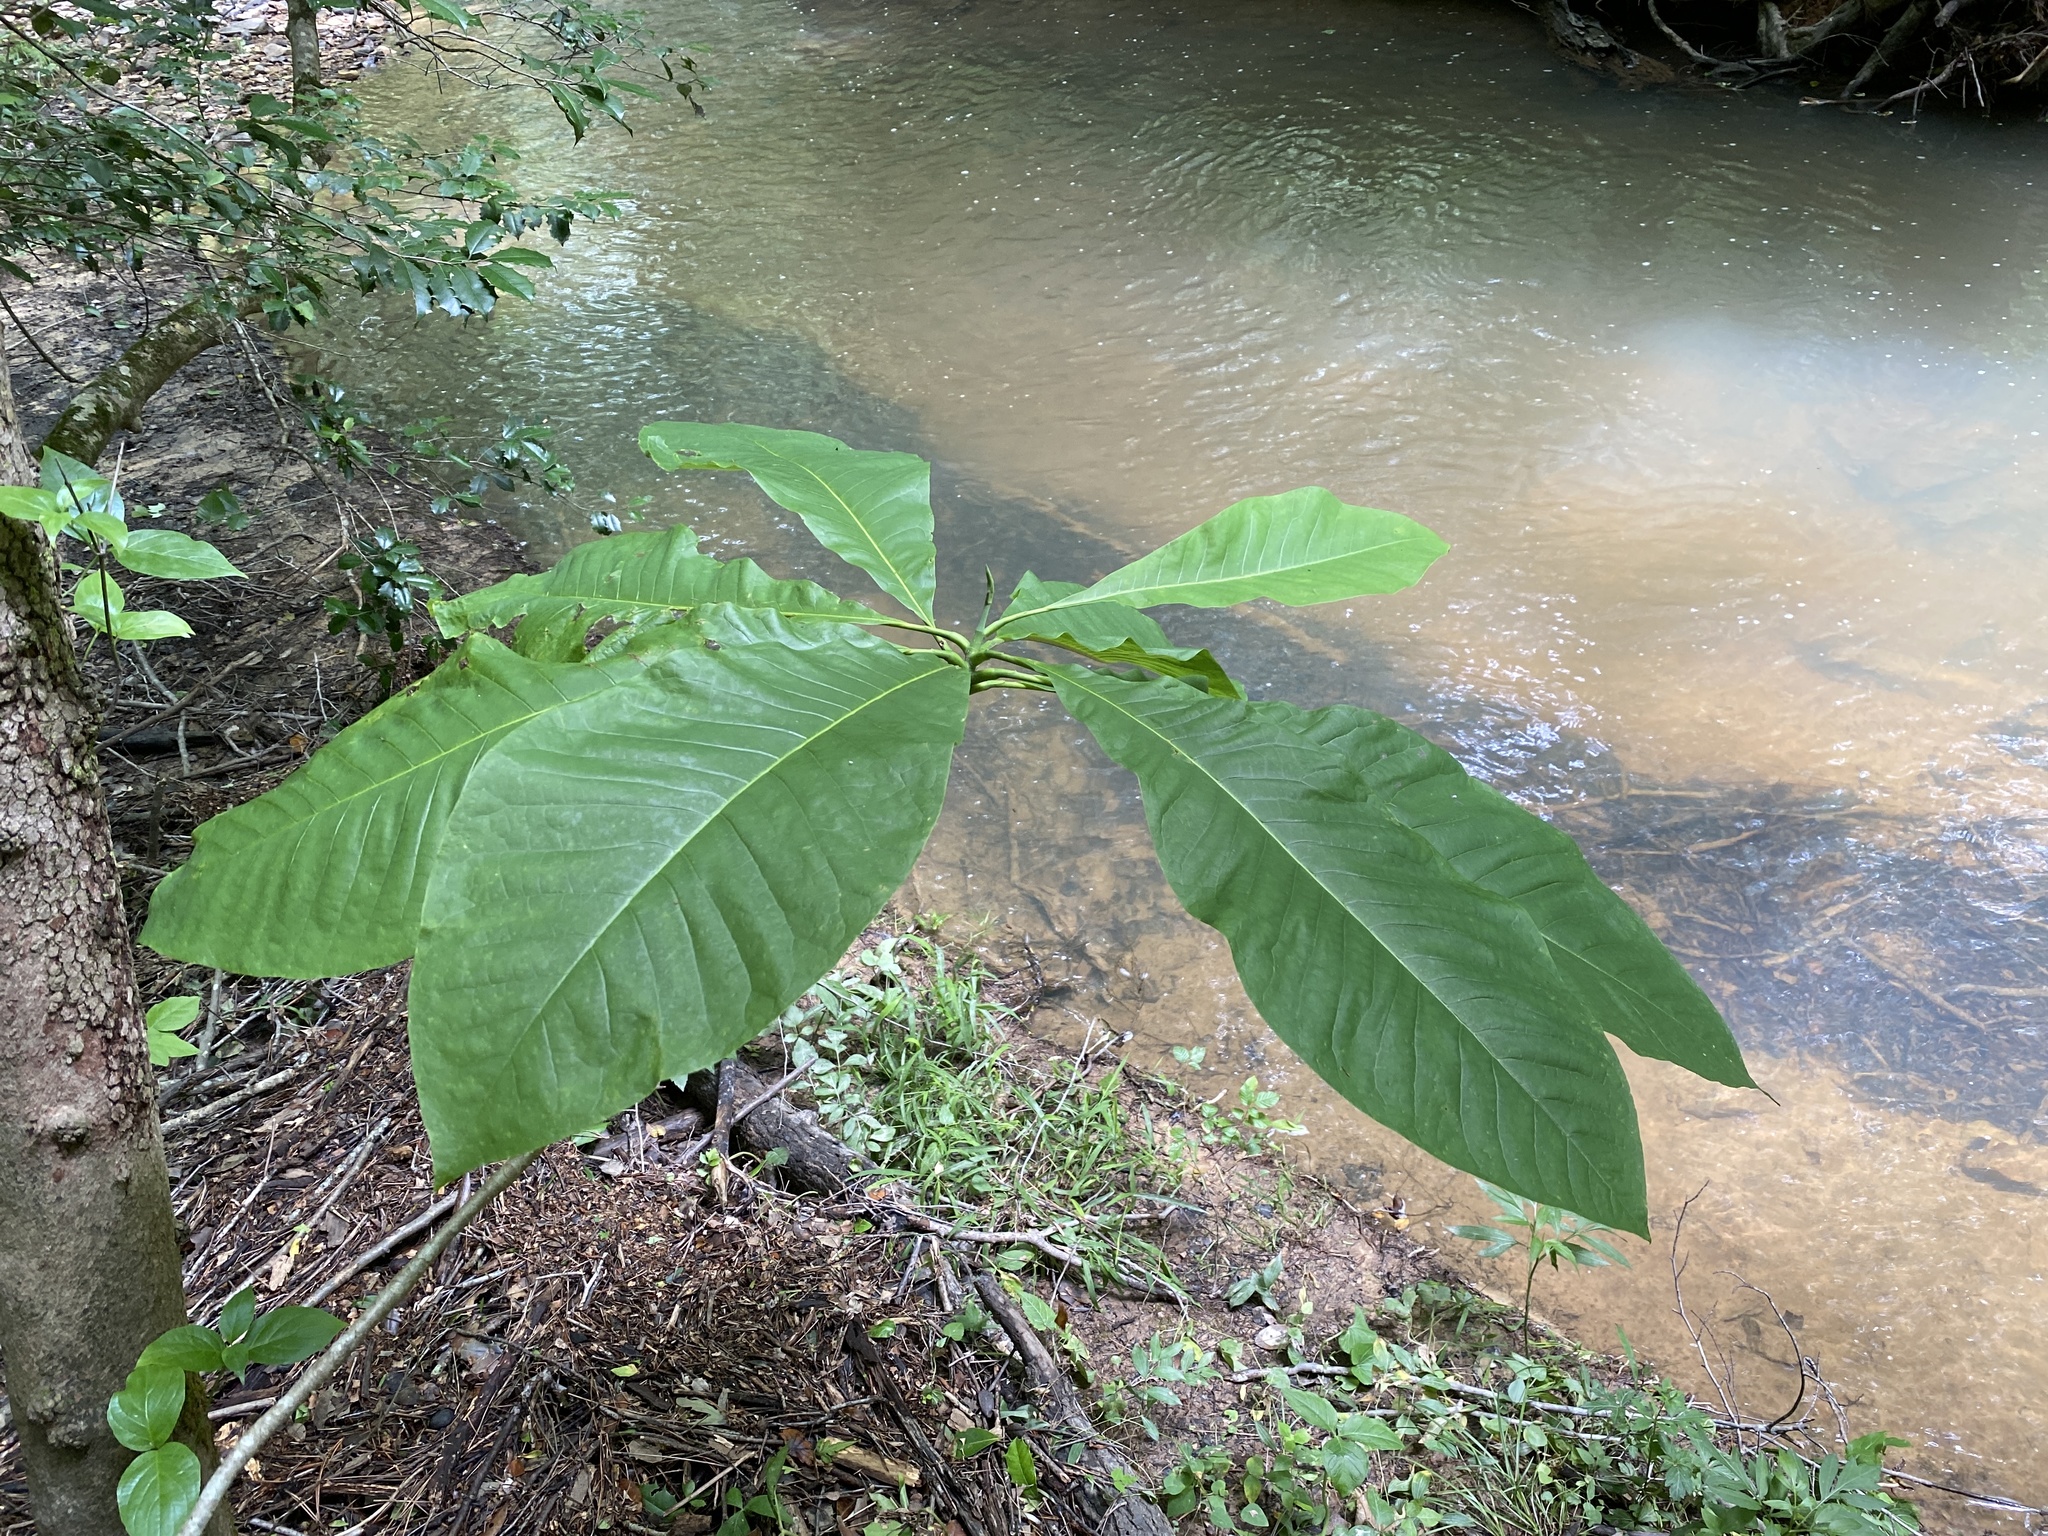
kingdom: Plantae
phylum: Tracheophyta
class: Magnoliopsida
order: Magnoliales
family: Magnoliaceae
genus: Magnolia
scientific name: Magnolia tripetala
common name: Umbrella magnolia
